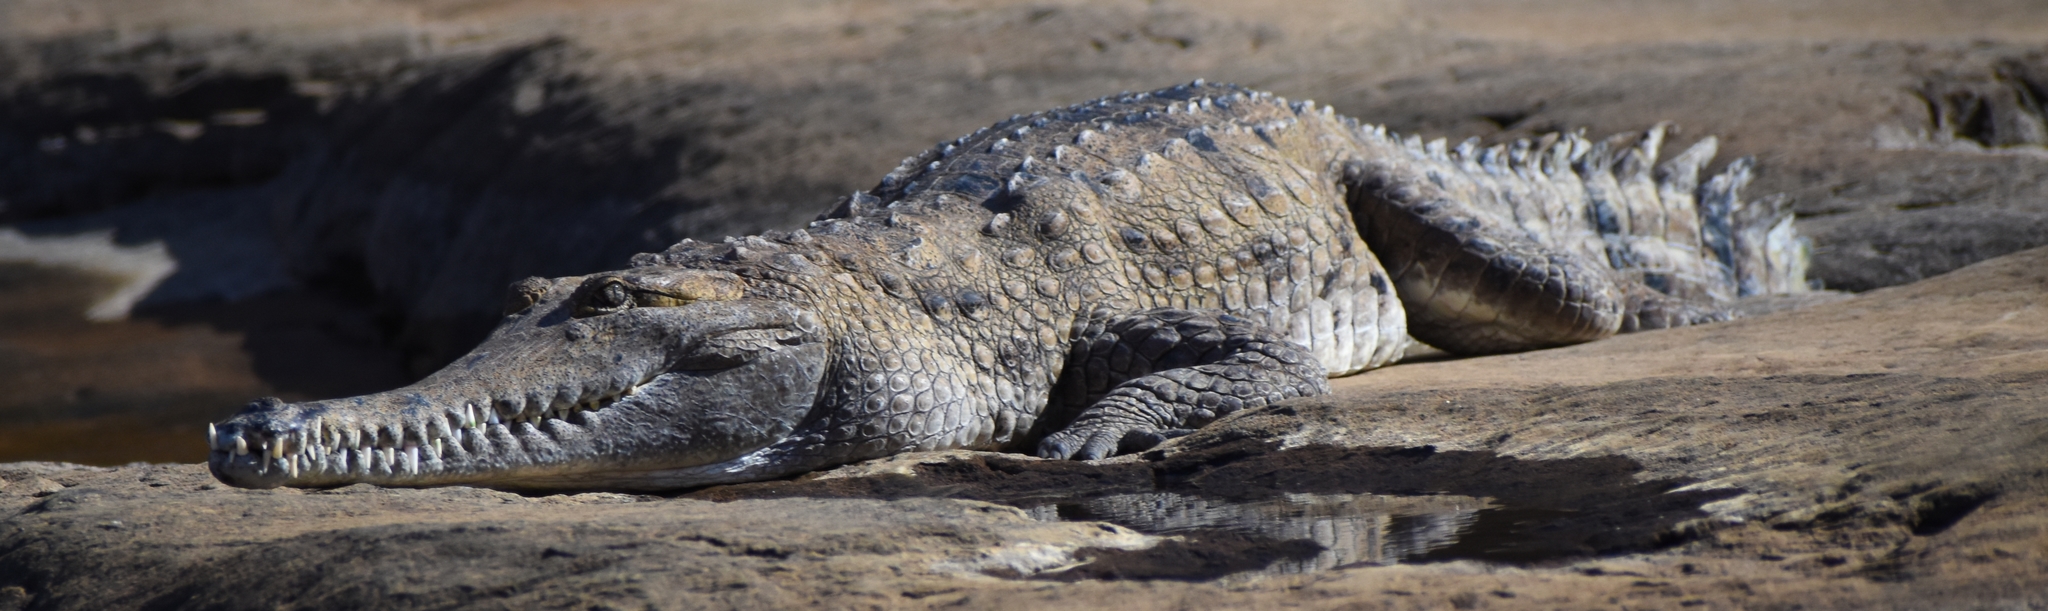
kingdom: Animalia
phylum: Chordata
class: Crocodylia
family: Crocodylidae
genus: Crocodylus
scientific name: Crocodylus johnsoni
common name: Freshwater crocodile
